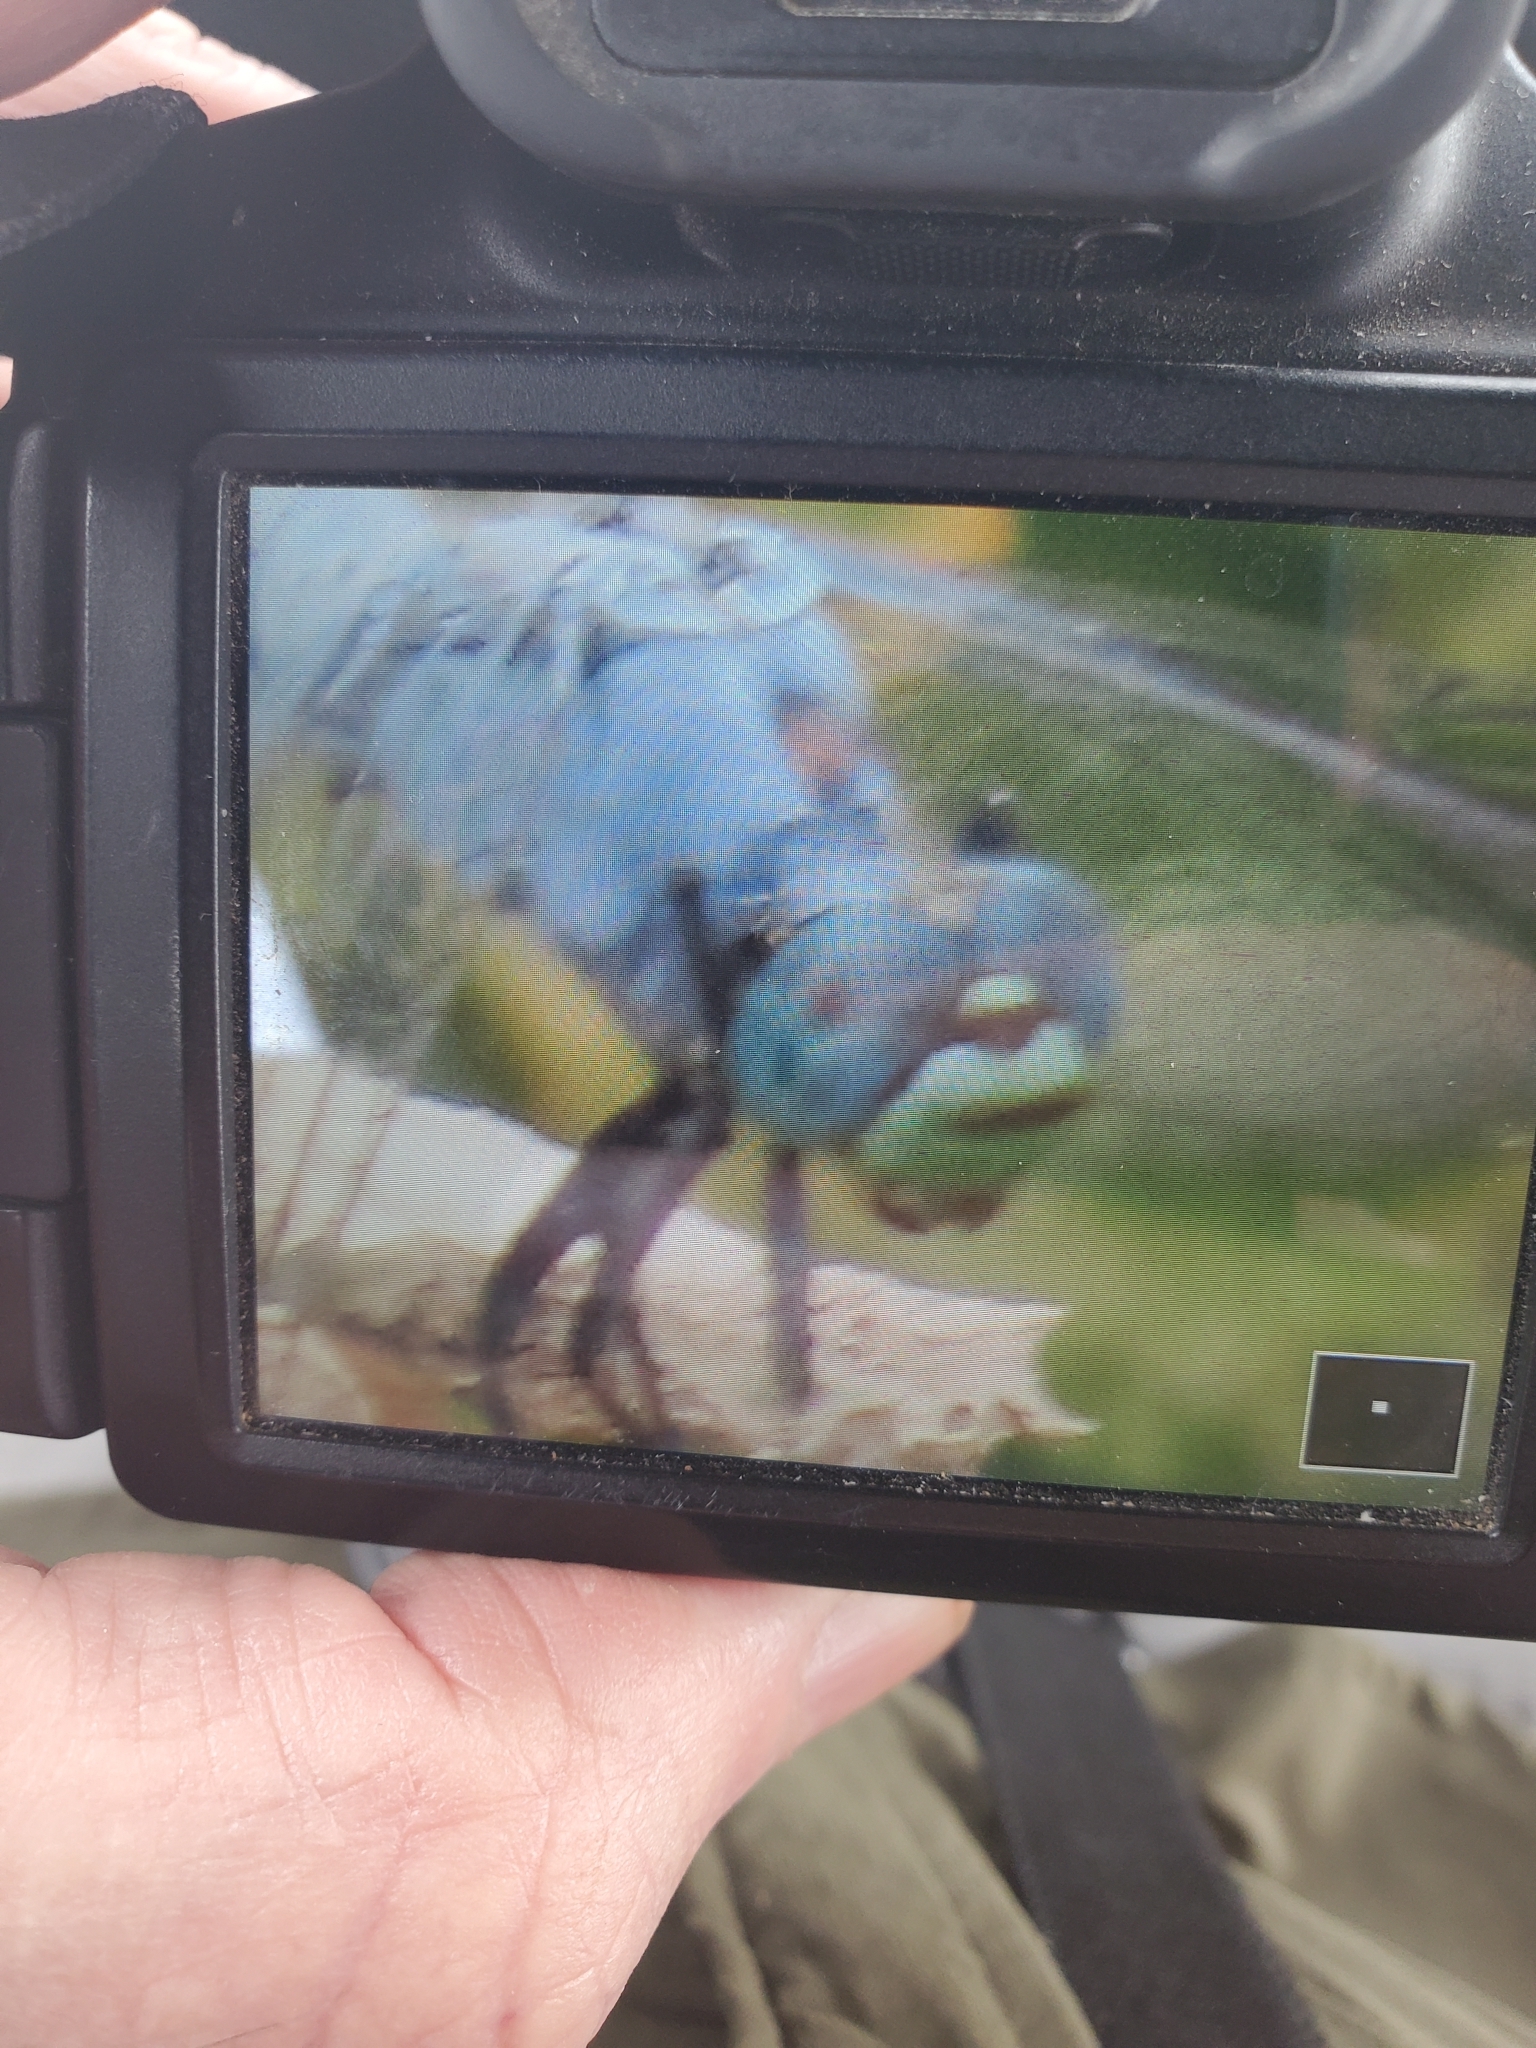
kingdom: Animalia
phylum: Arthropoda
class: Insecta
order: Odonata
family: Libellulidae
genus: Erythemis
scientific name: Erythemis collocata
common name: Western pondhawk
